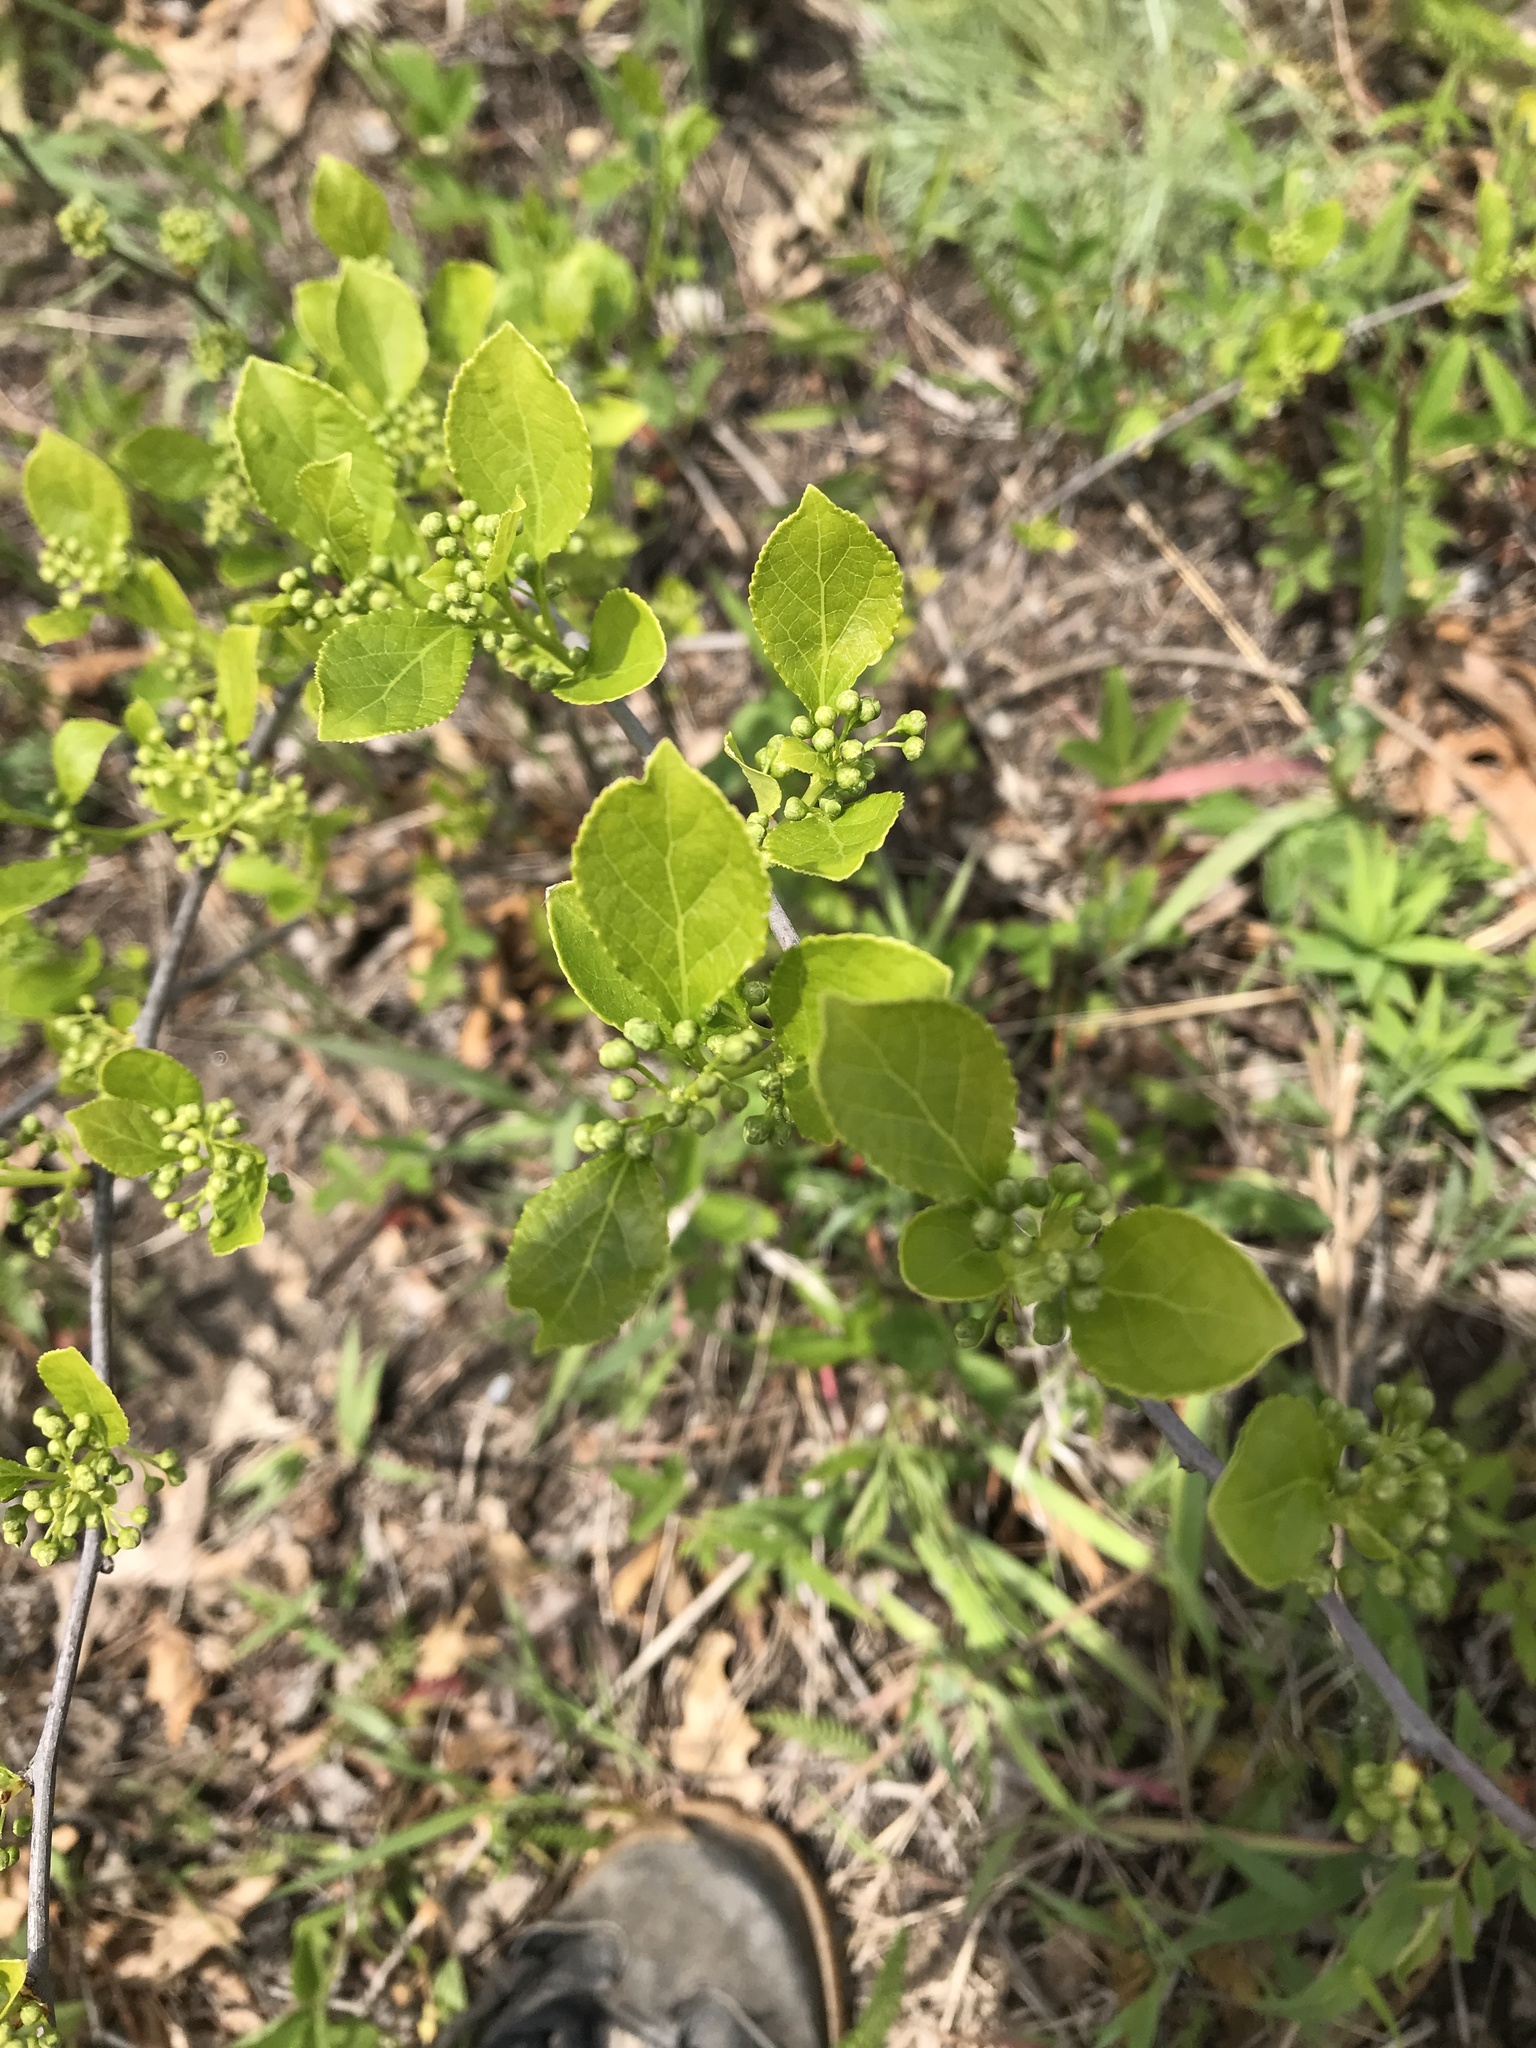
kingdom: Plantae
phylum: Tracheophyta
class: Magnoliopsida
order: Celastrales
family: Celastraceae
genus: Celastrus
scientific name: Celastrus orbiculatus
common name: Oriental bittersweet
